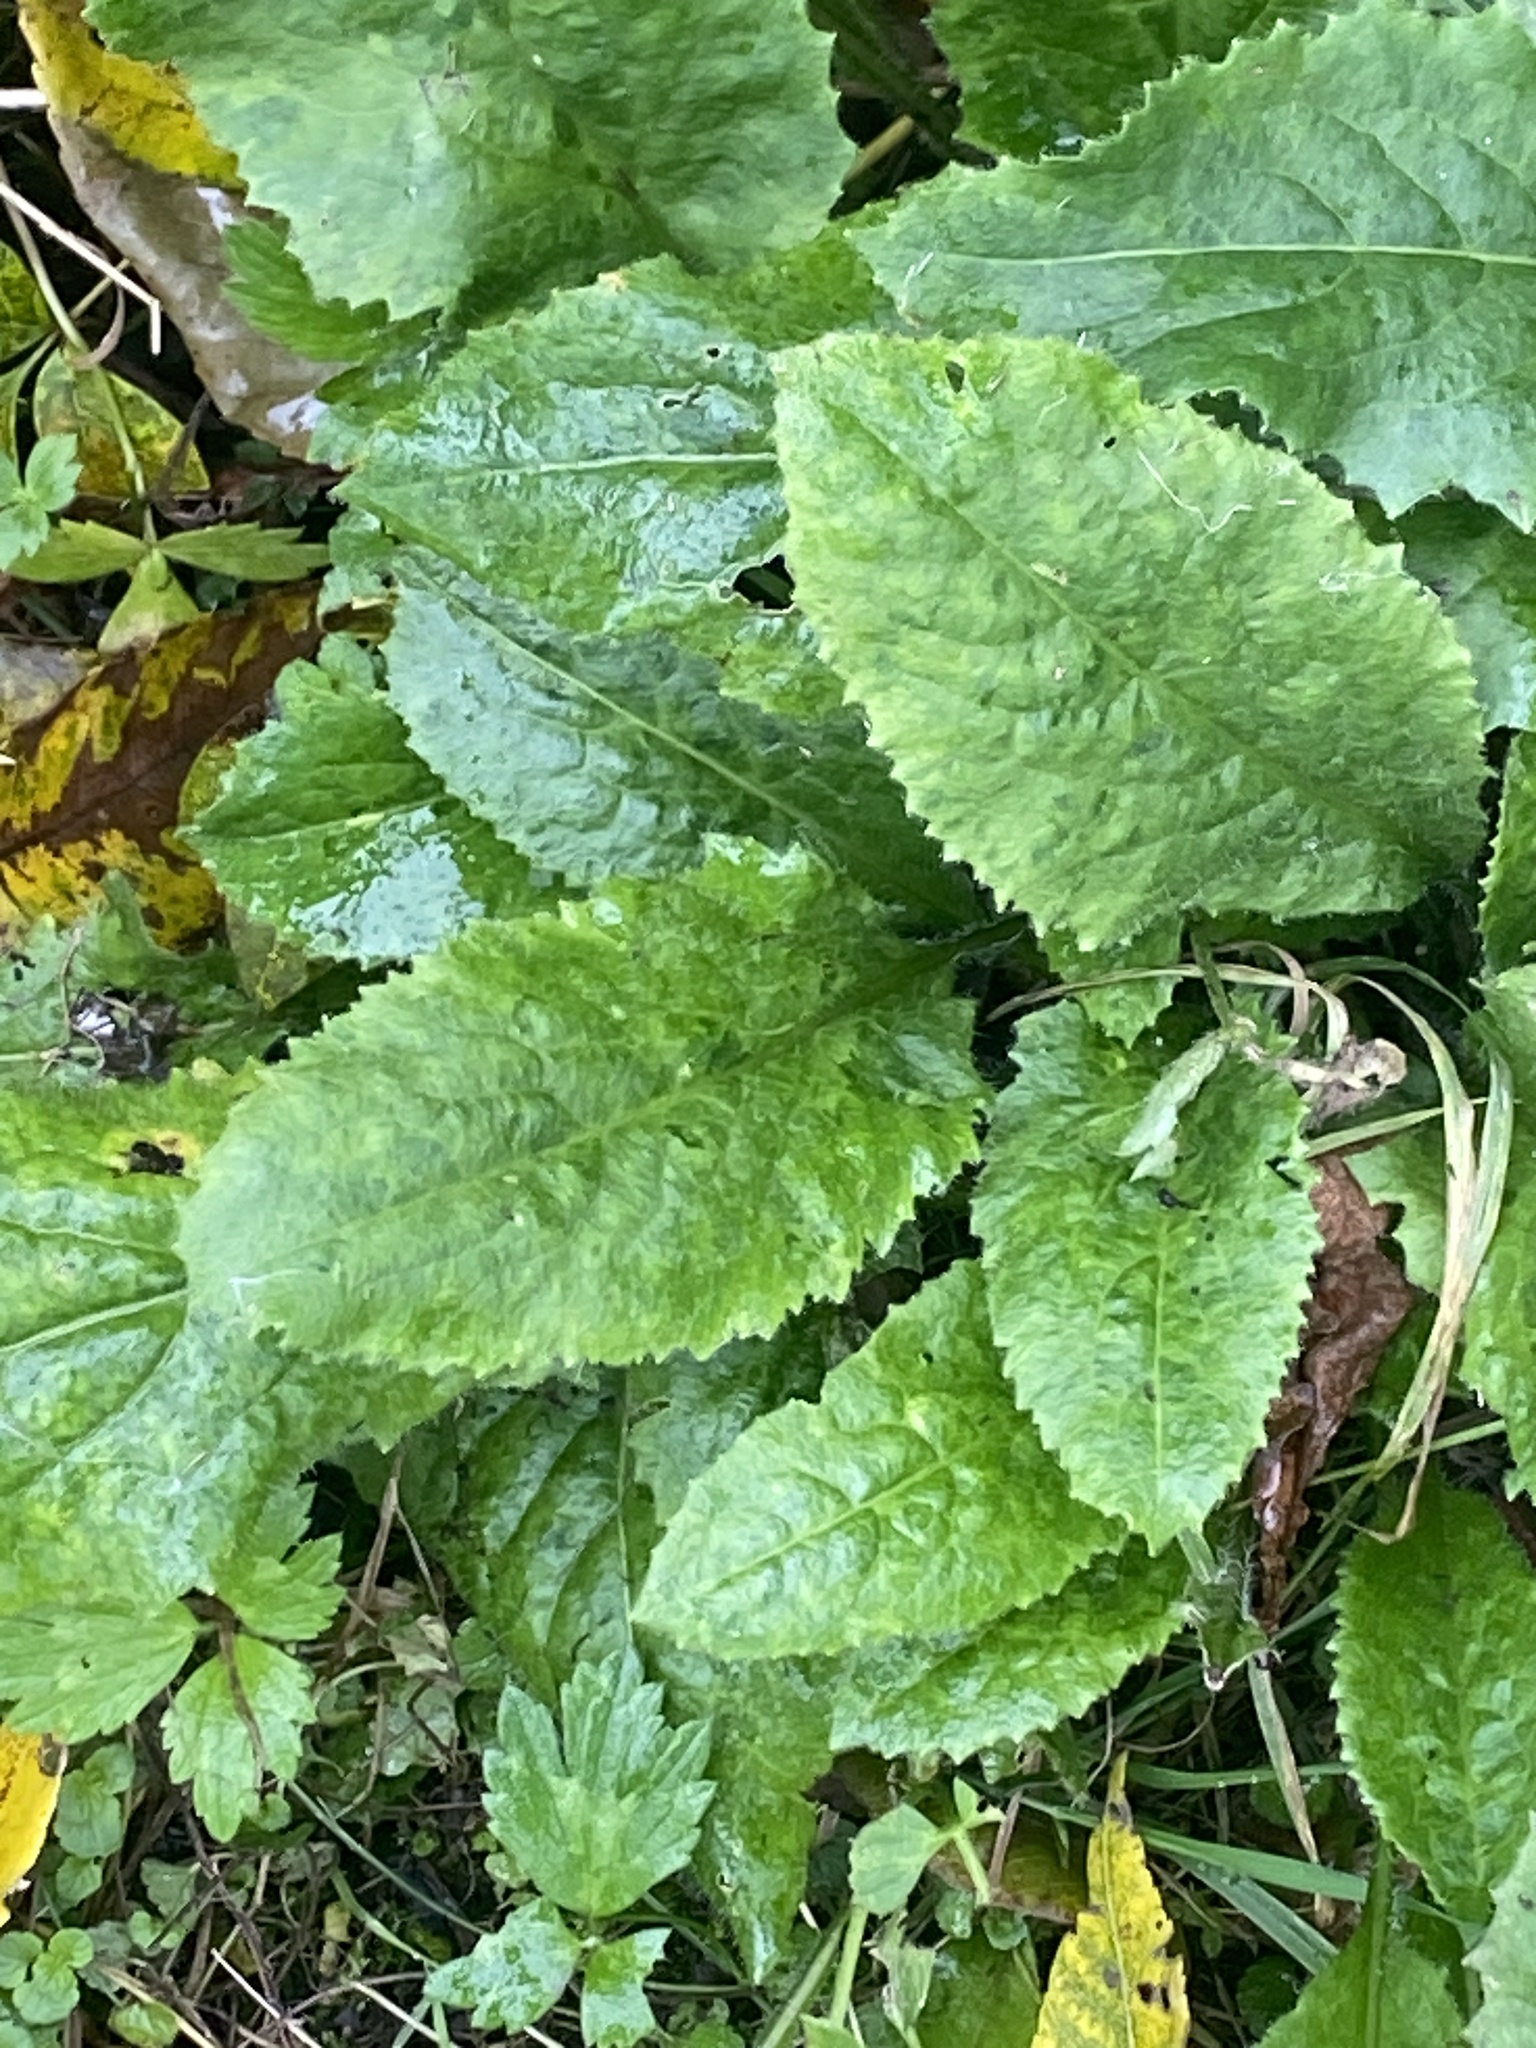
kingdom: Plantae
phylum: Tracheophyta
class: Magnoliopsida
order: Brassicales
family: Brassicaceae
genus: Hesperis
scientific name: Hesperis matronalis
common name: Dame's-violet
